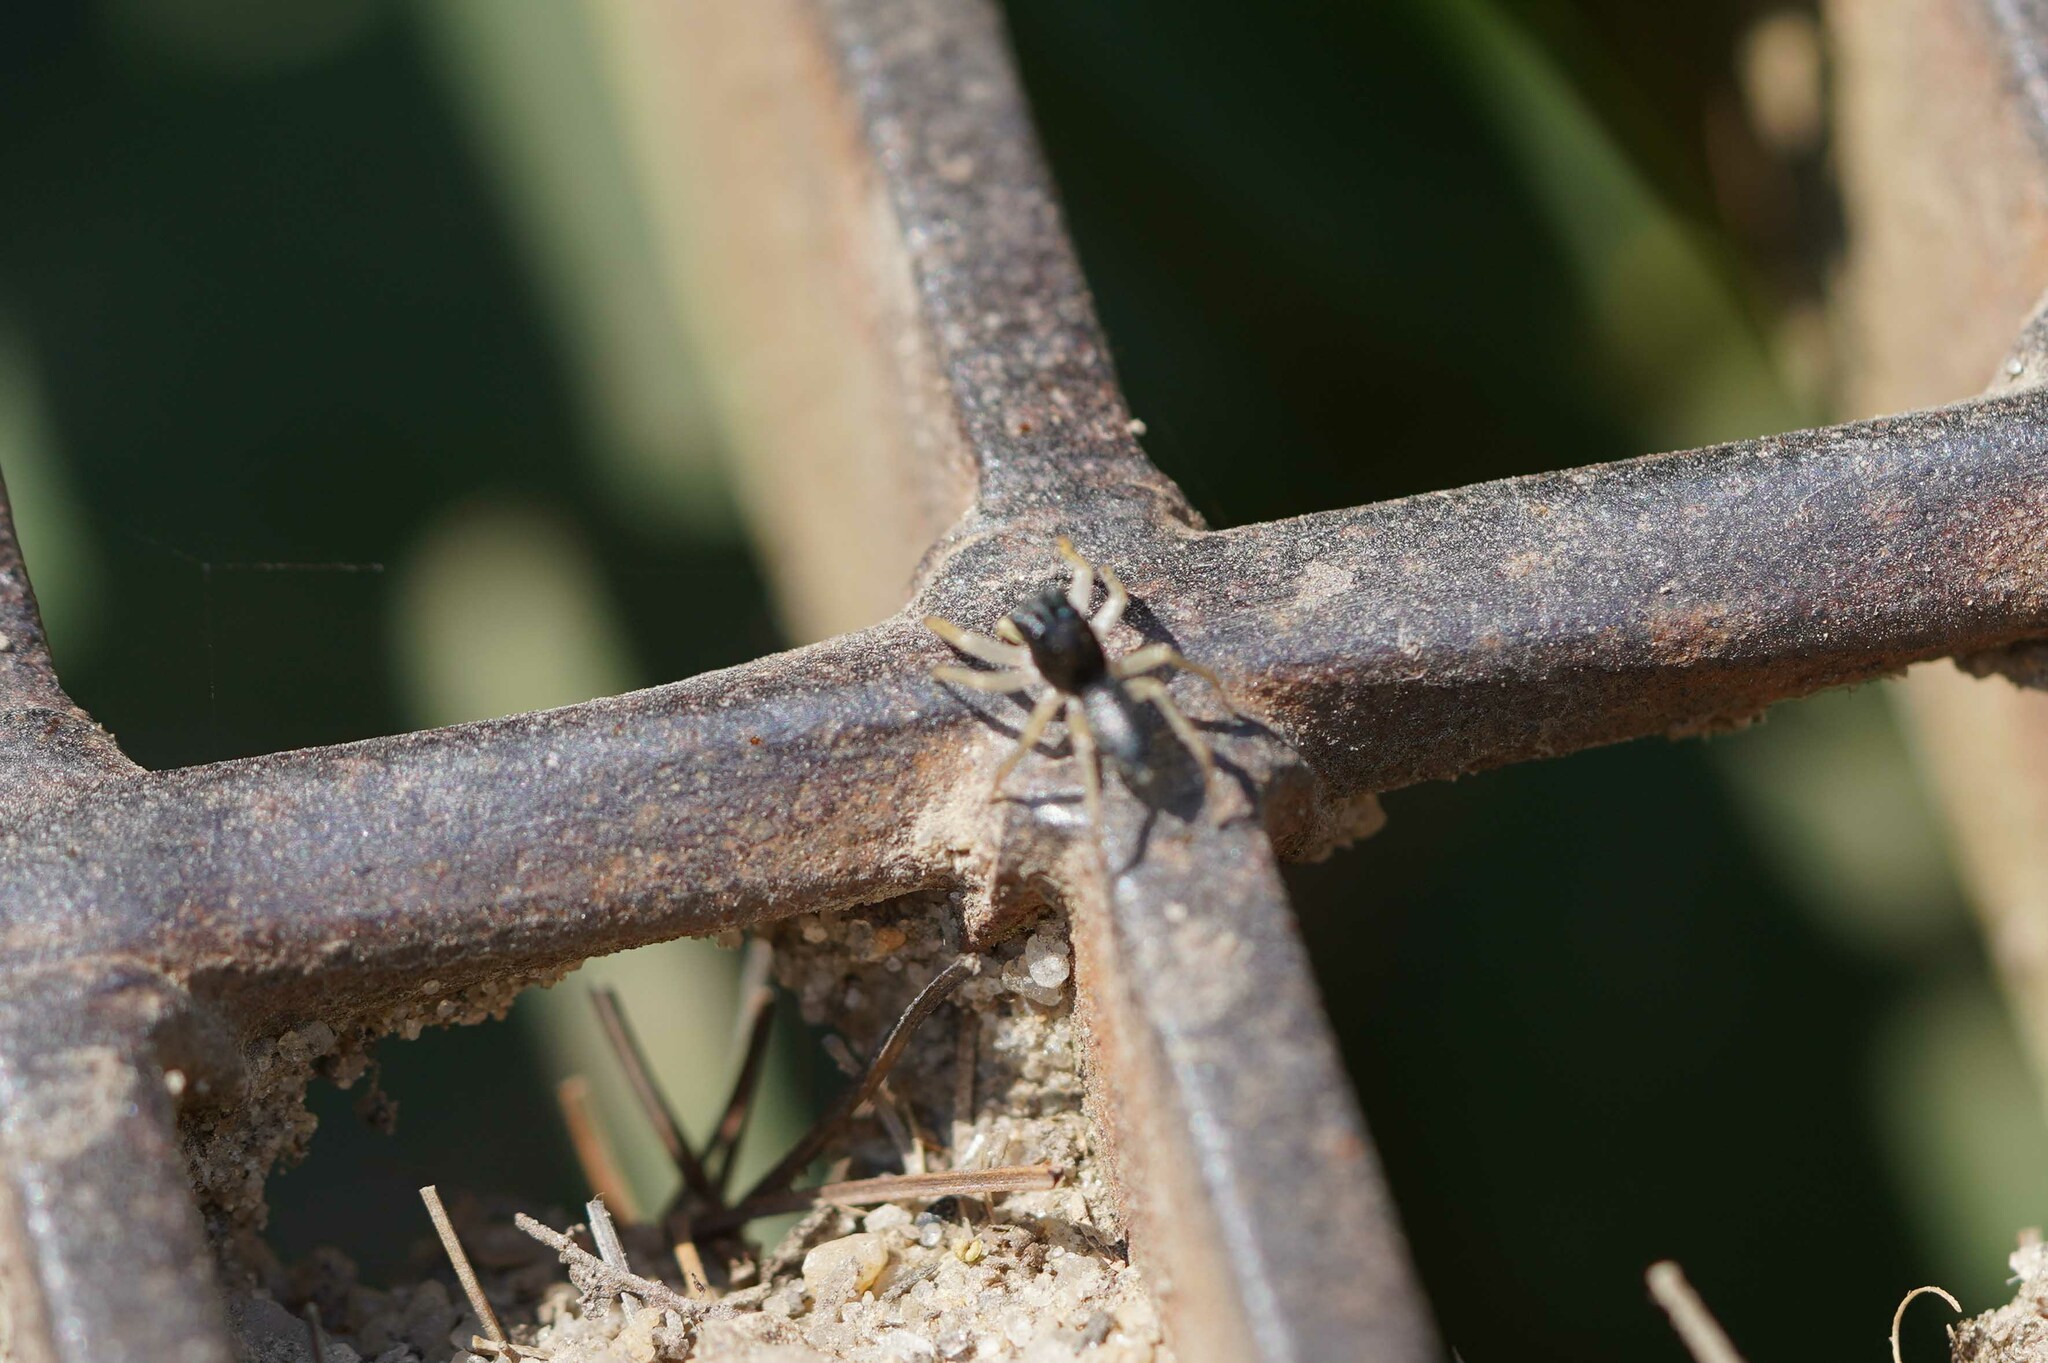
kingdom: Animalia
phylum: Arthropoda
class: Arachnida
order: Araneae
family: Salticidae
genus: Maevia
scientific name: Maevia inclemens
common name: Dimorphic jumper
